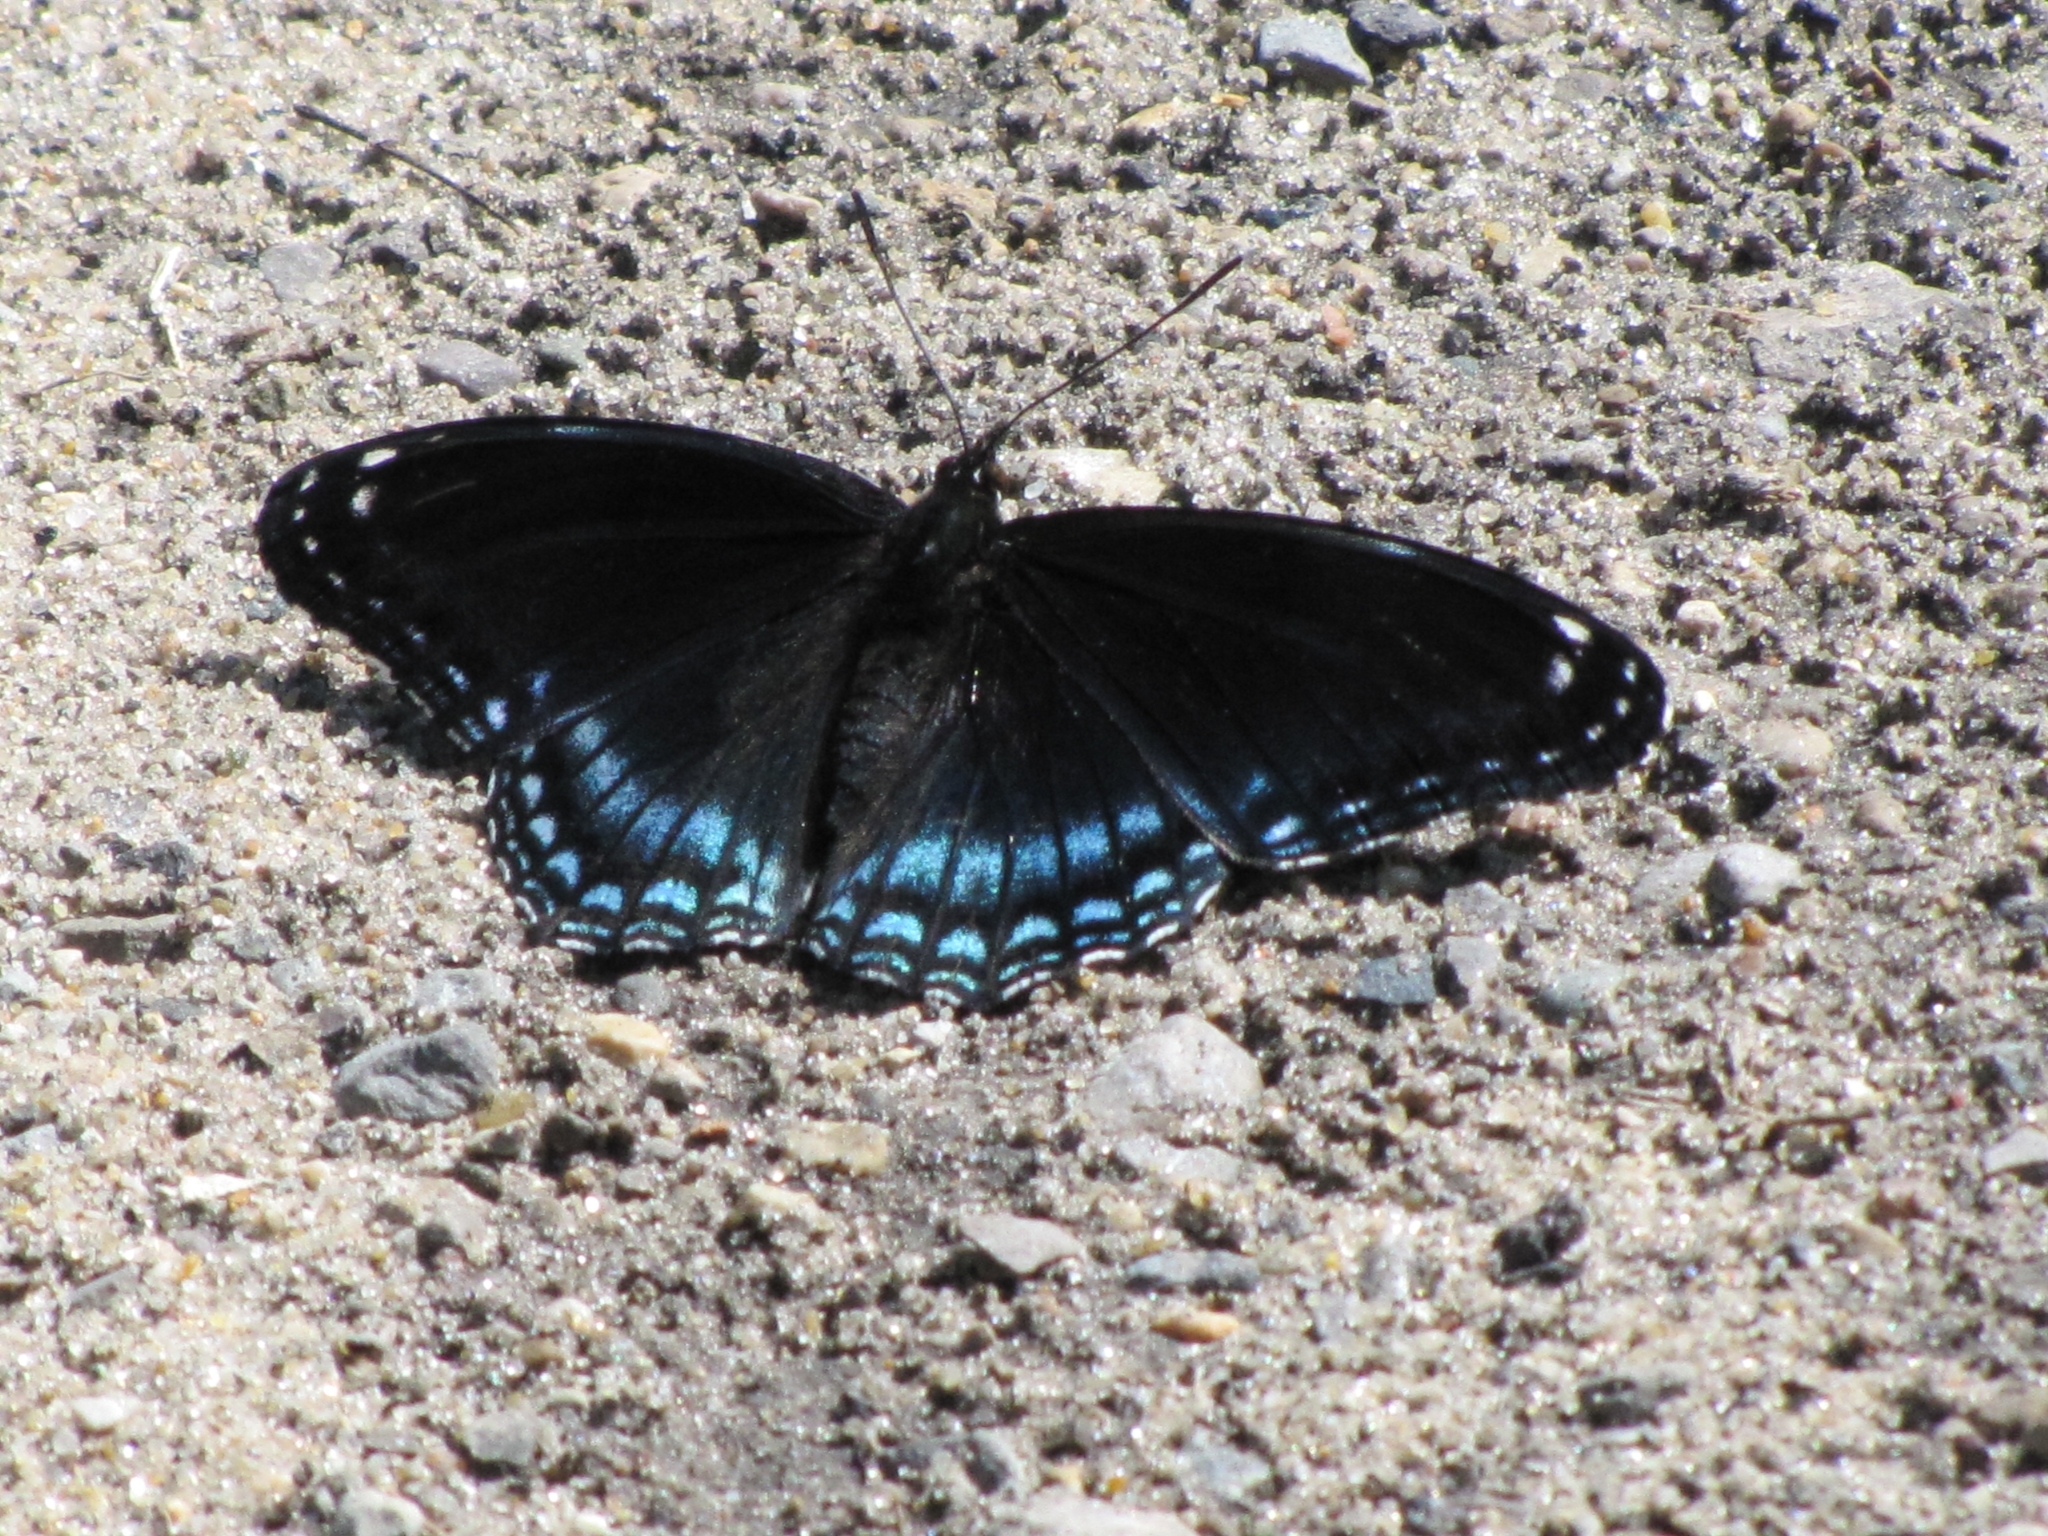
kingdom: Animalia
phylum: Arthropoda
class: Insecta
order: Lepidoptera
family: Nymphalidae
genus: Limenitis
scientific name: Limenitis astyanax
